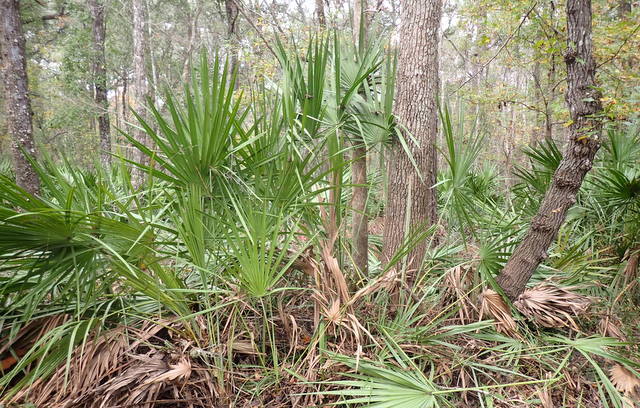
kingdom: Plantae
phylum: Tracheophyta
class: Liliopsida
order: Arecales
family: Arecaceae
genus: Serenoa
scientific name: Serenoa repens
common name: Saw-palmetto
